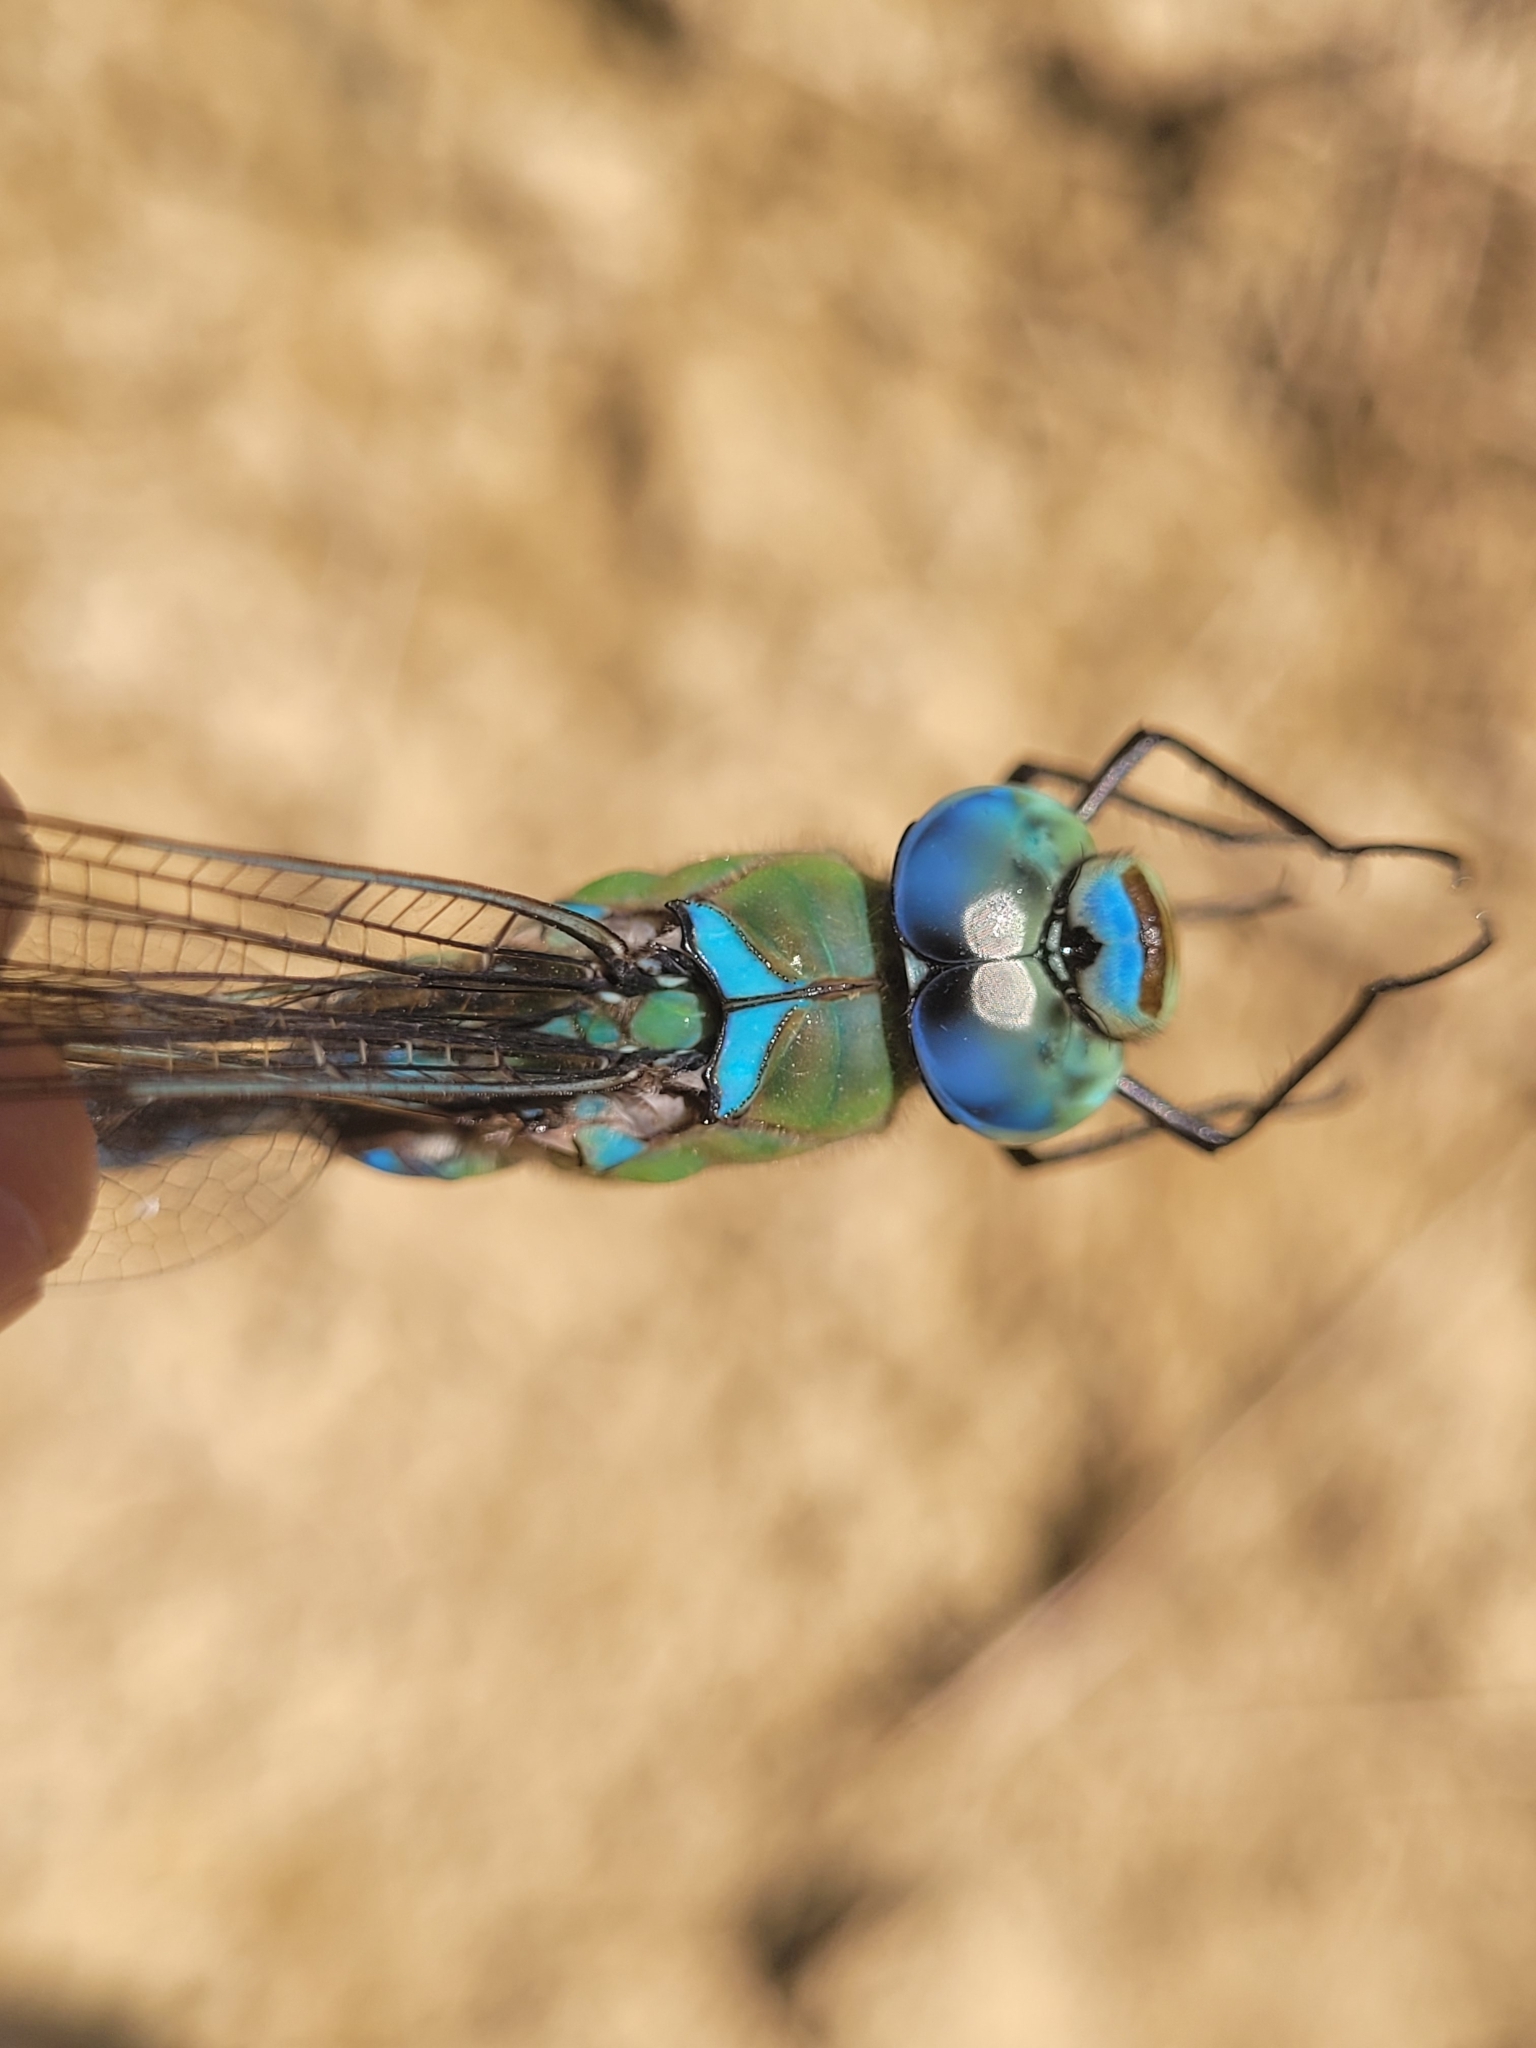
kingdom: Animalia
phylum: Arthropoda
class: Insecta
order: Odonata
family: Aeshnidae
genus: Anax
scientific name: Anax imperator
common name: Emperor dragonfly
